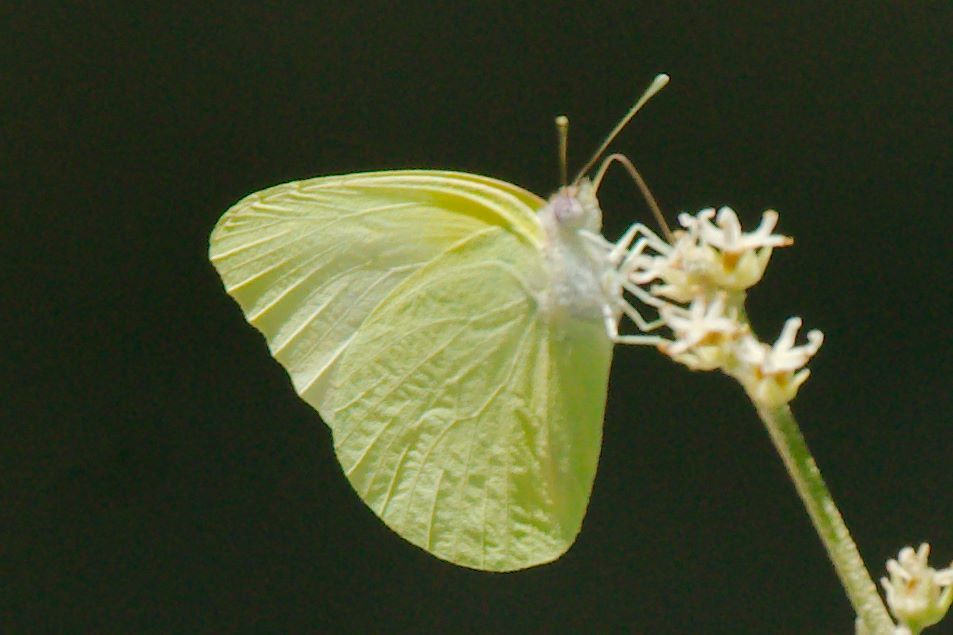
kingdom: Animalia
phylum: Arthropoda
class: Insecta
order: Lepidoptera
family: Pieridae
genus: Kricogonia
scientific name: Kricogonia lyside
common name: Guayacan sulphur,
